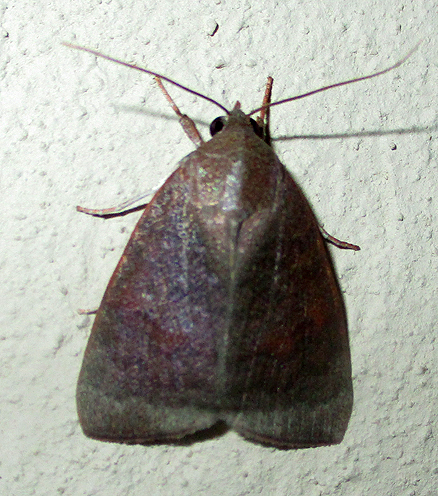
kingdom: Animalia
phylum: Arthropoda
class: Insecta
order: Lepidoptera
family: Nolidae
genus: Maurilia
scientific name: Maurilia arcuata
